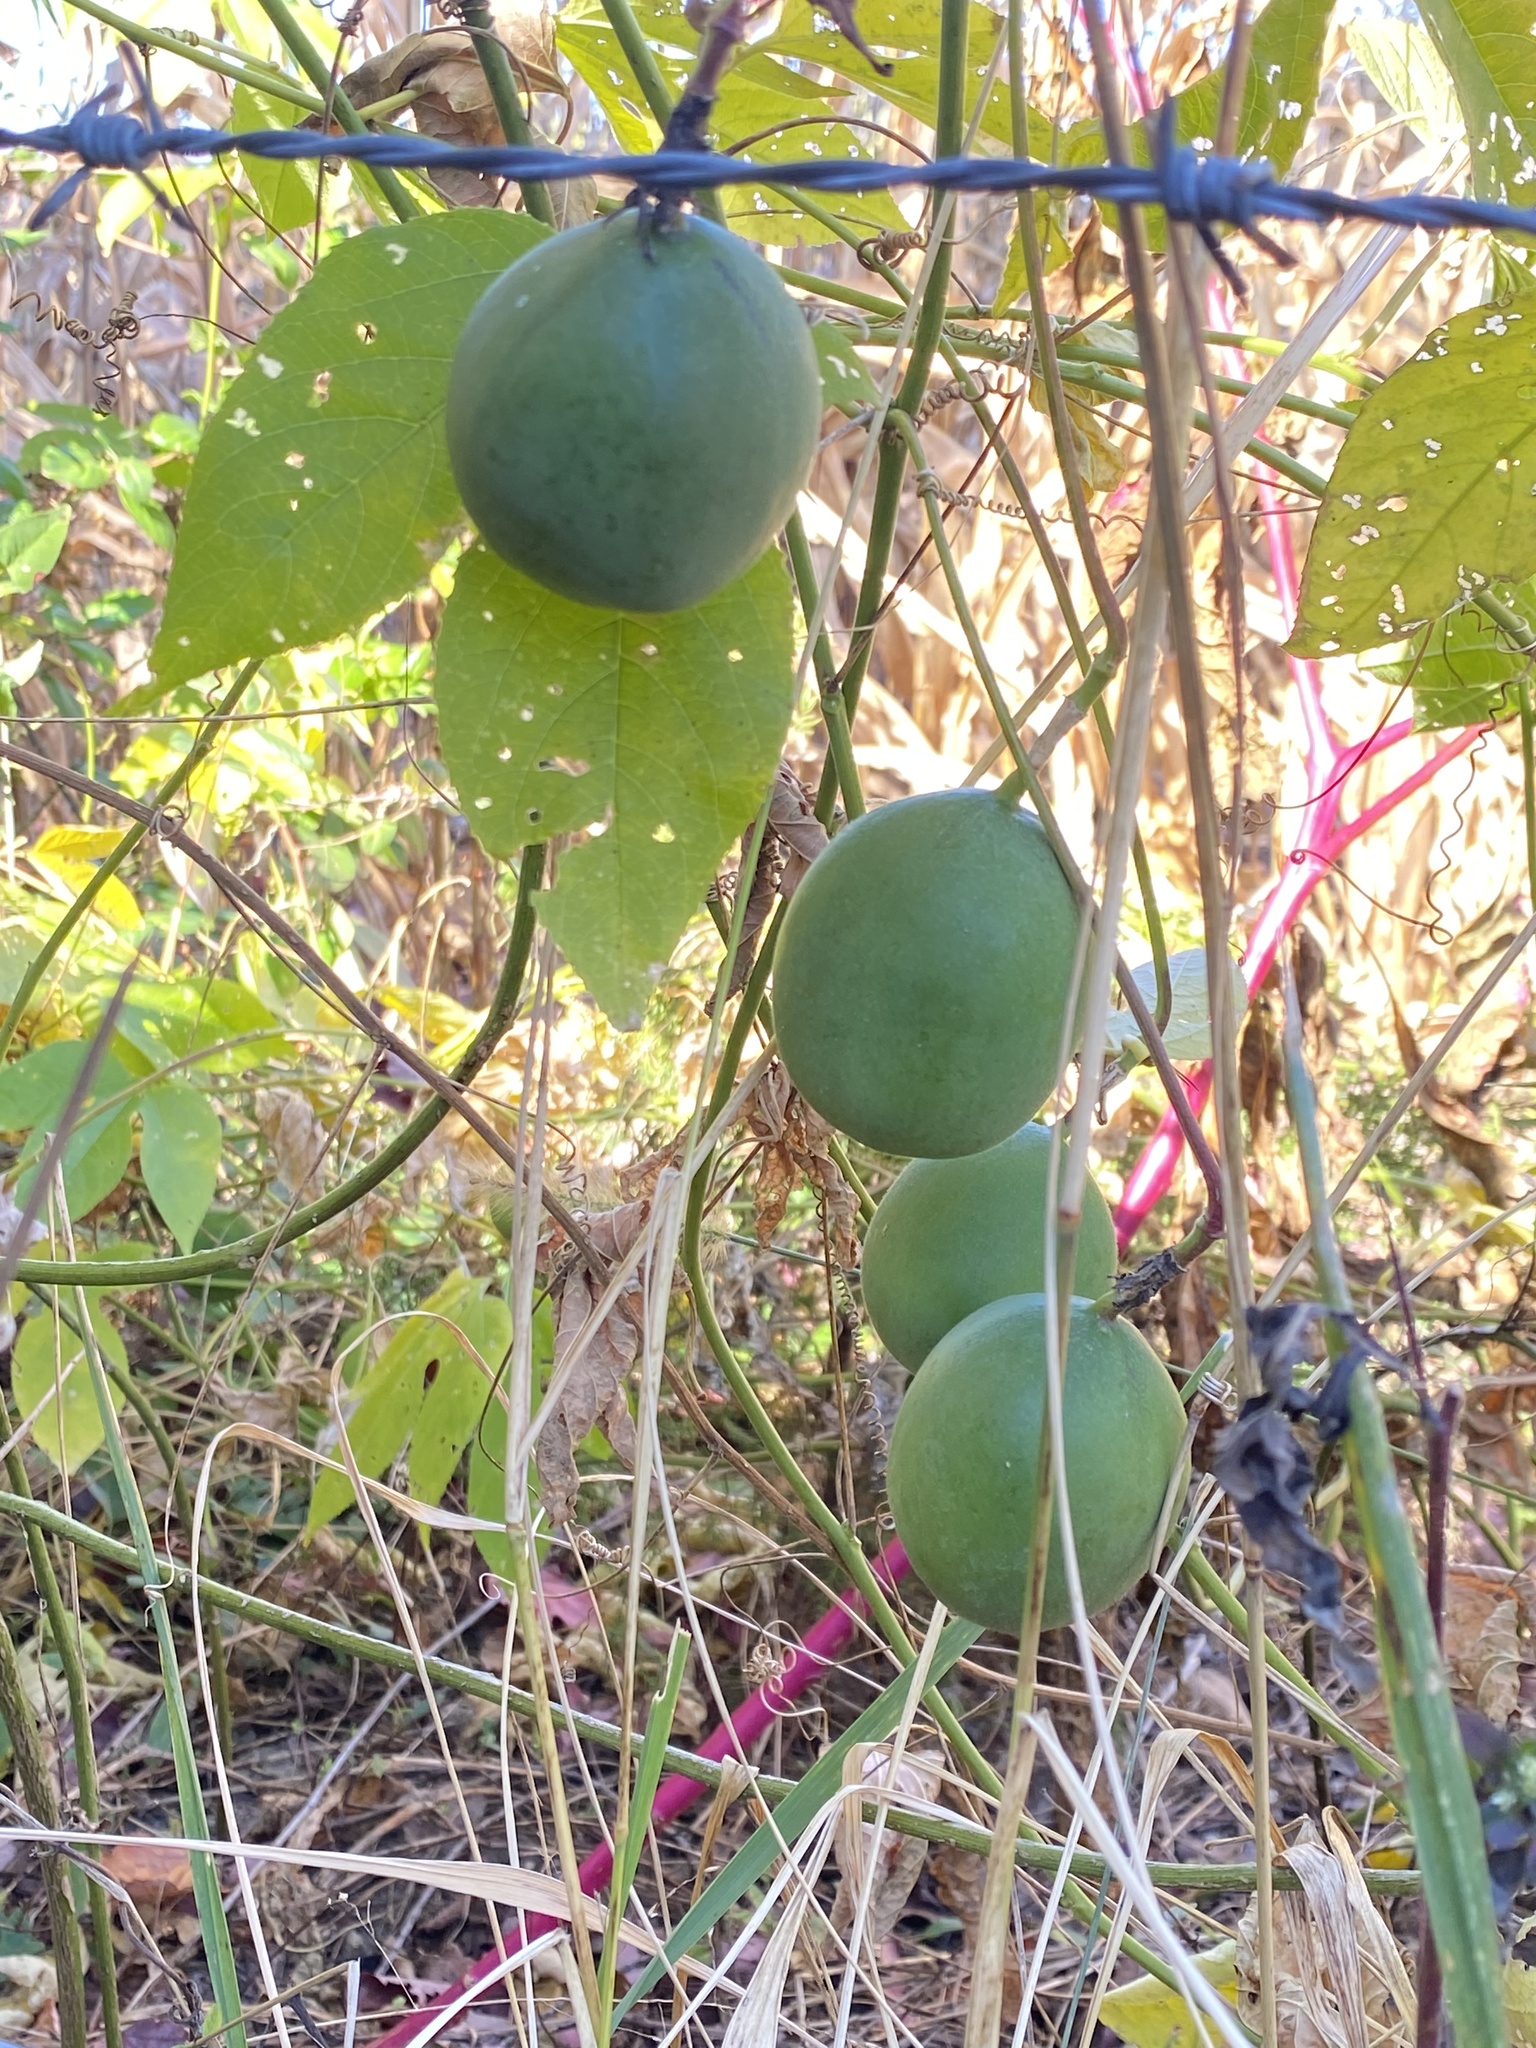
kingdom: Plantae
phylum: Tracheophyta
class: Magnoliopsida
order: Malpighiales
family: Passifloraceae
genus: Passiflora
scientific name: Passiflora incarnata
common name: Apricot-vine
